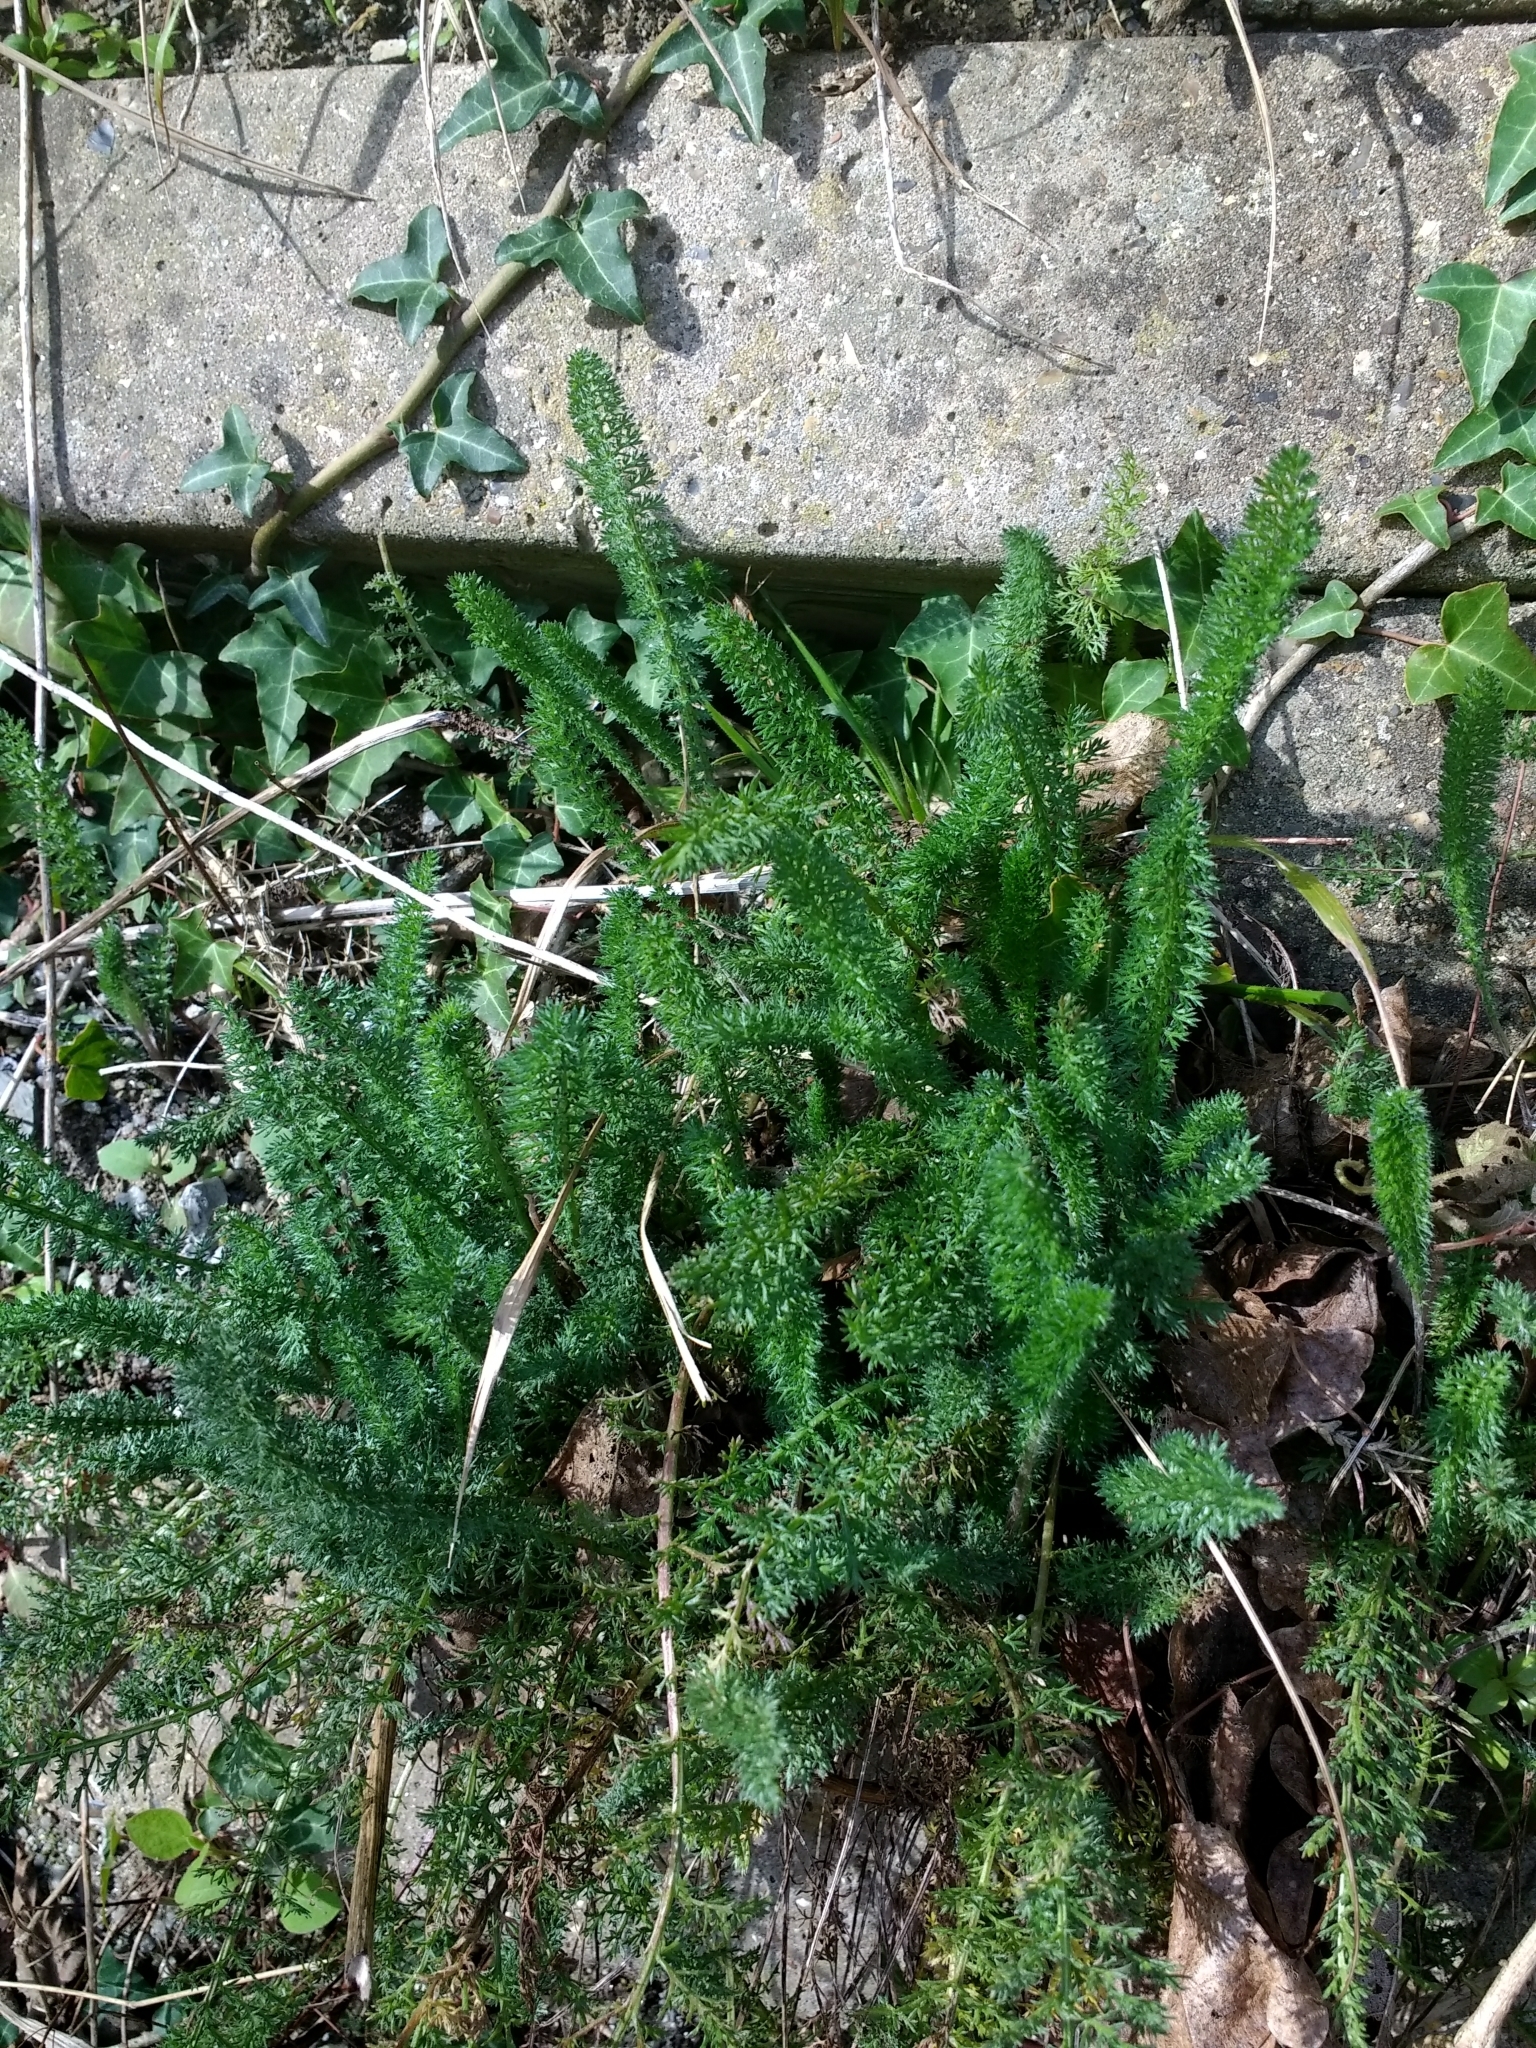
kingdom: Plantae
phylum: Tracheophyta
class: Magnoliopsida
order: Asterales
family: Asteraceae
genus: Achillea
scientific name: Achillea millefolium
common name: Yarrow
